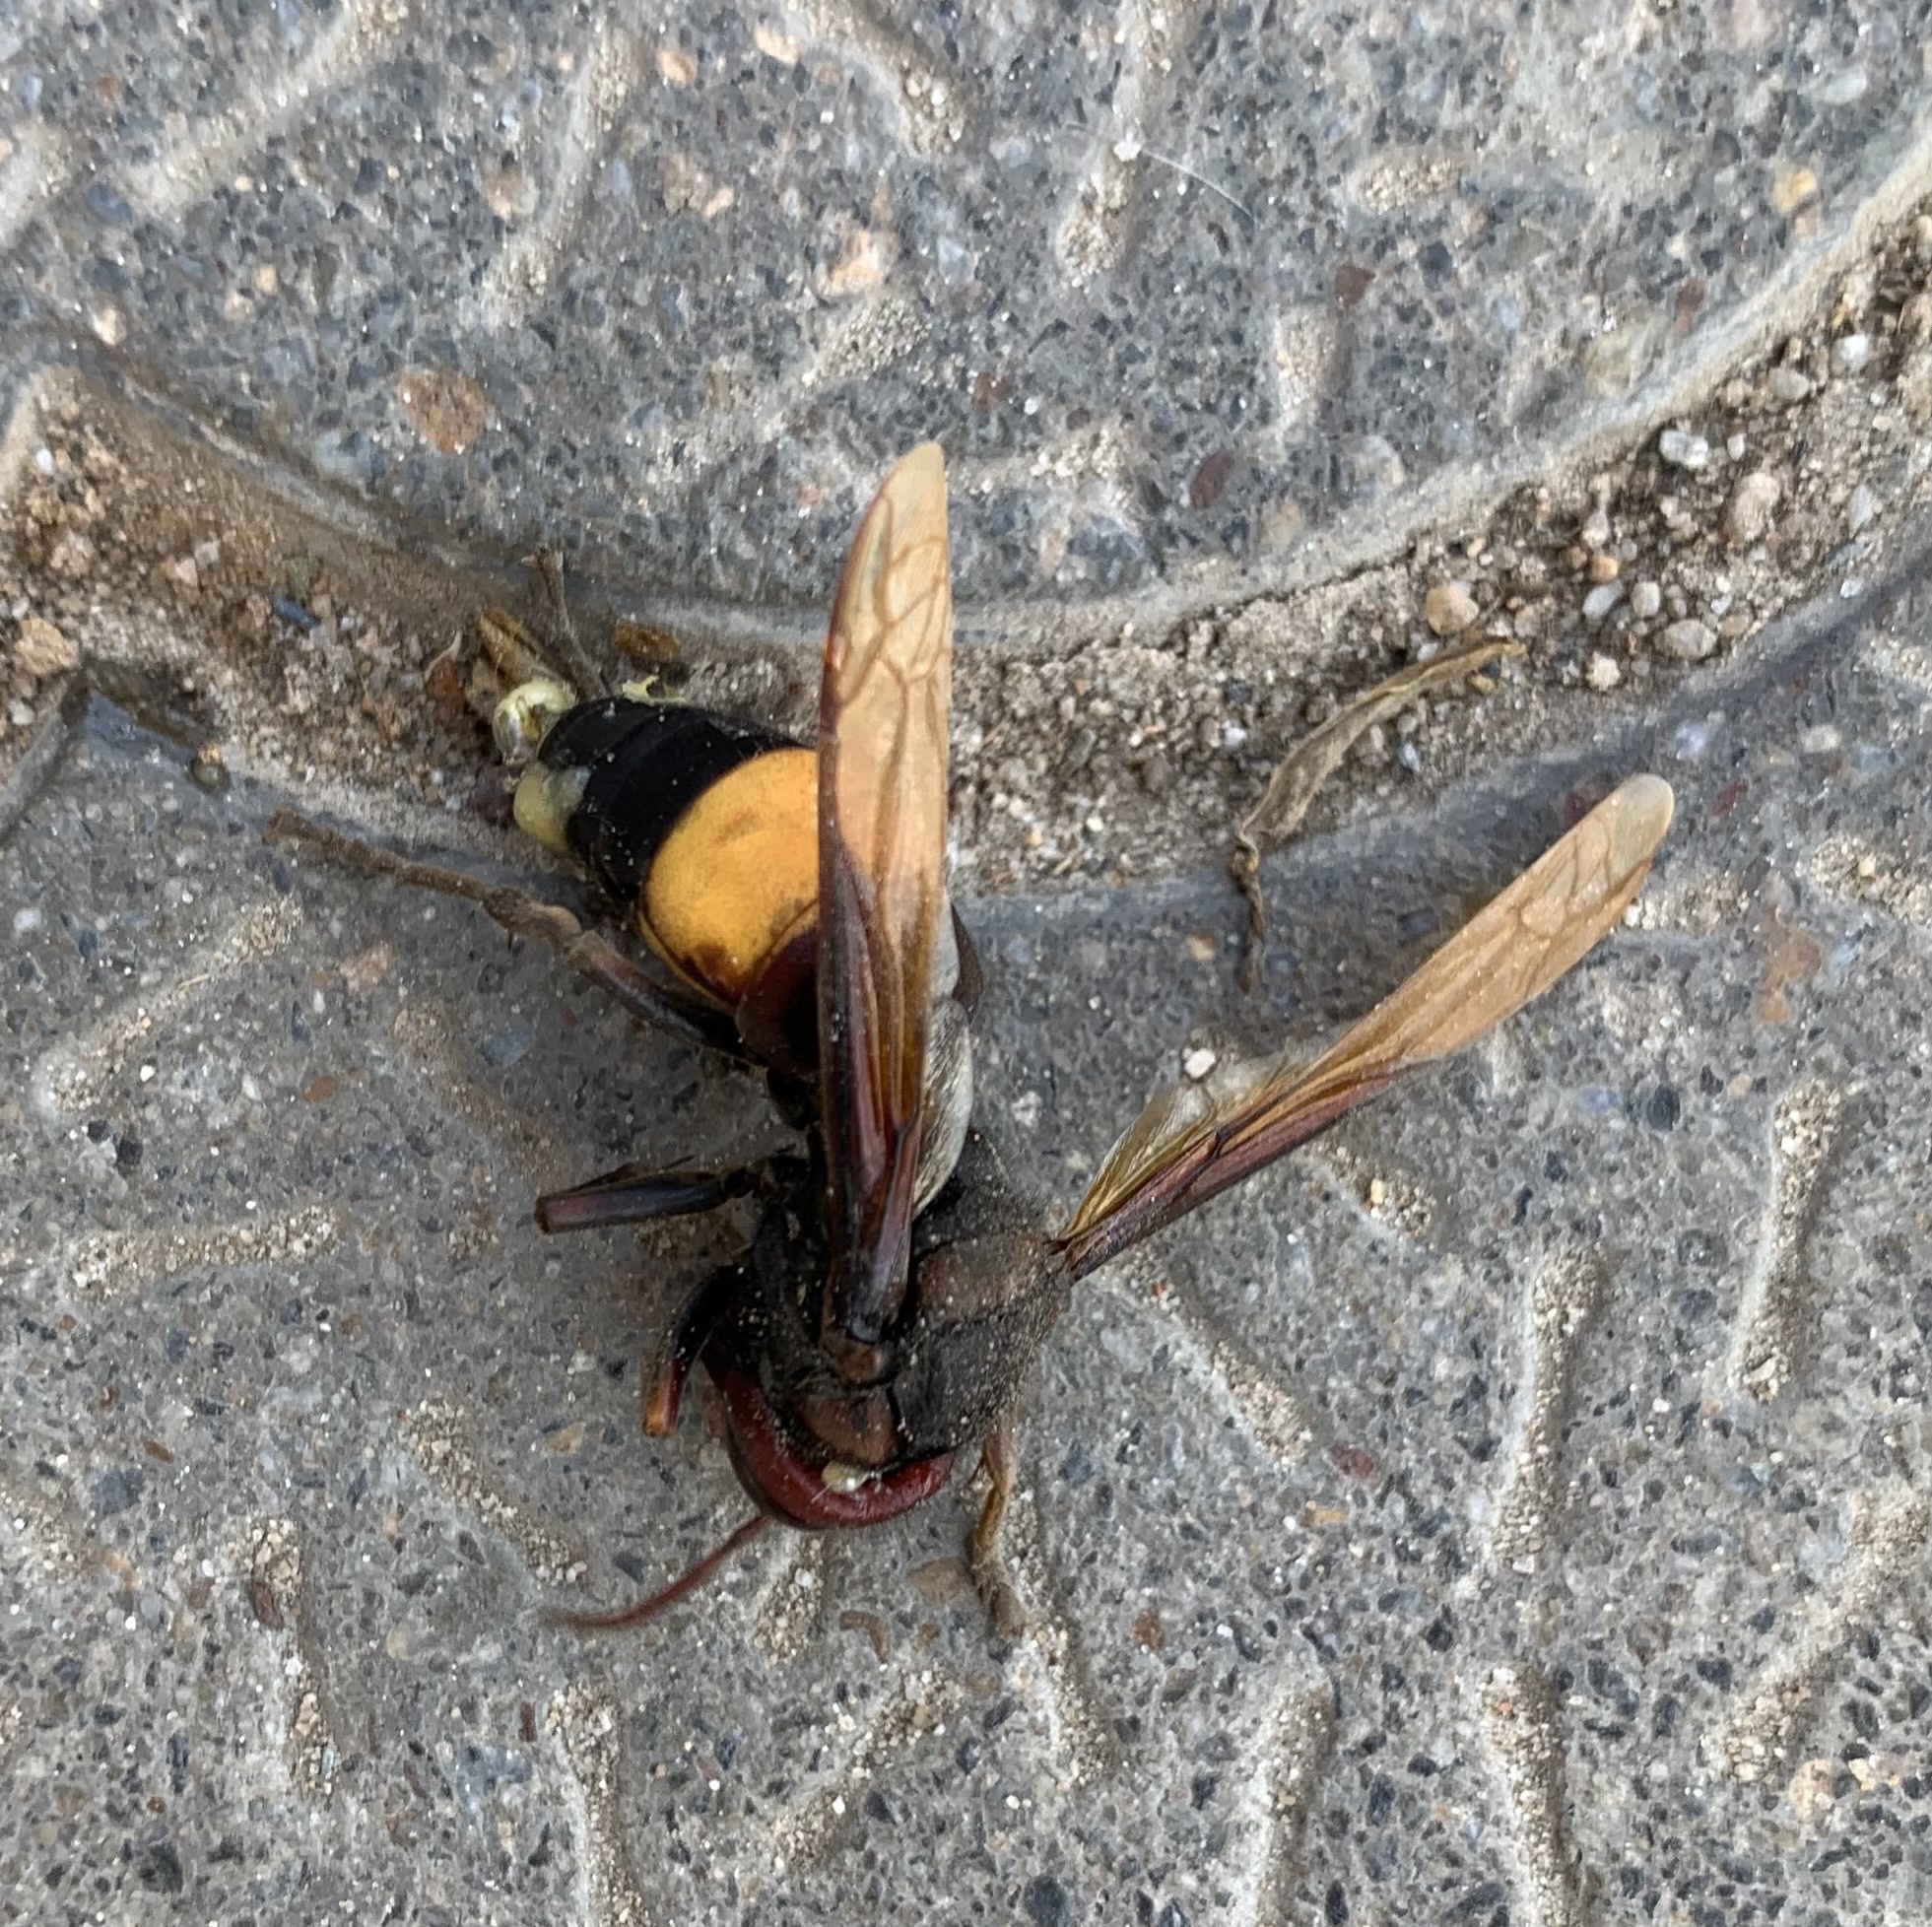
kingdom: Animalia
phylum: Arthropoda
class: Insecta
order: Hymenoptera
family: Vespidae
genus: Vespa
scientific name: Vespa affinis
